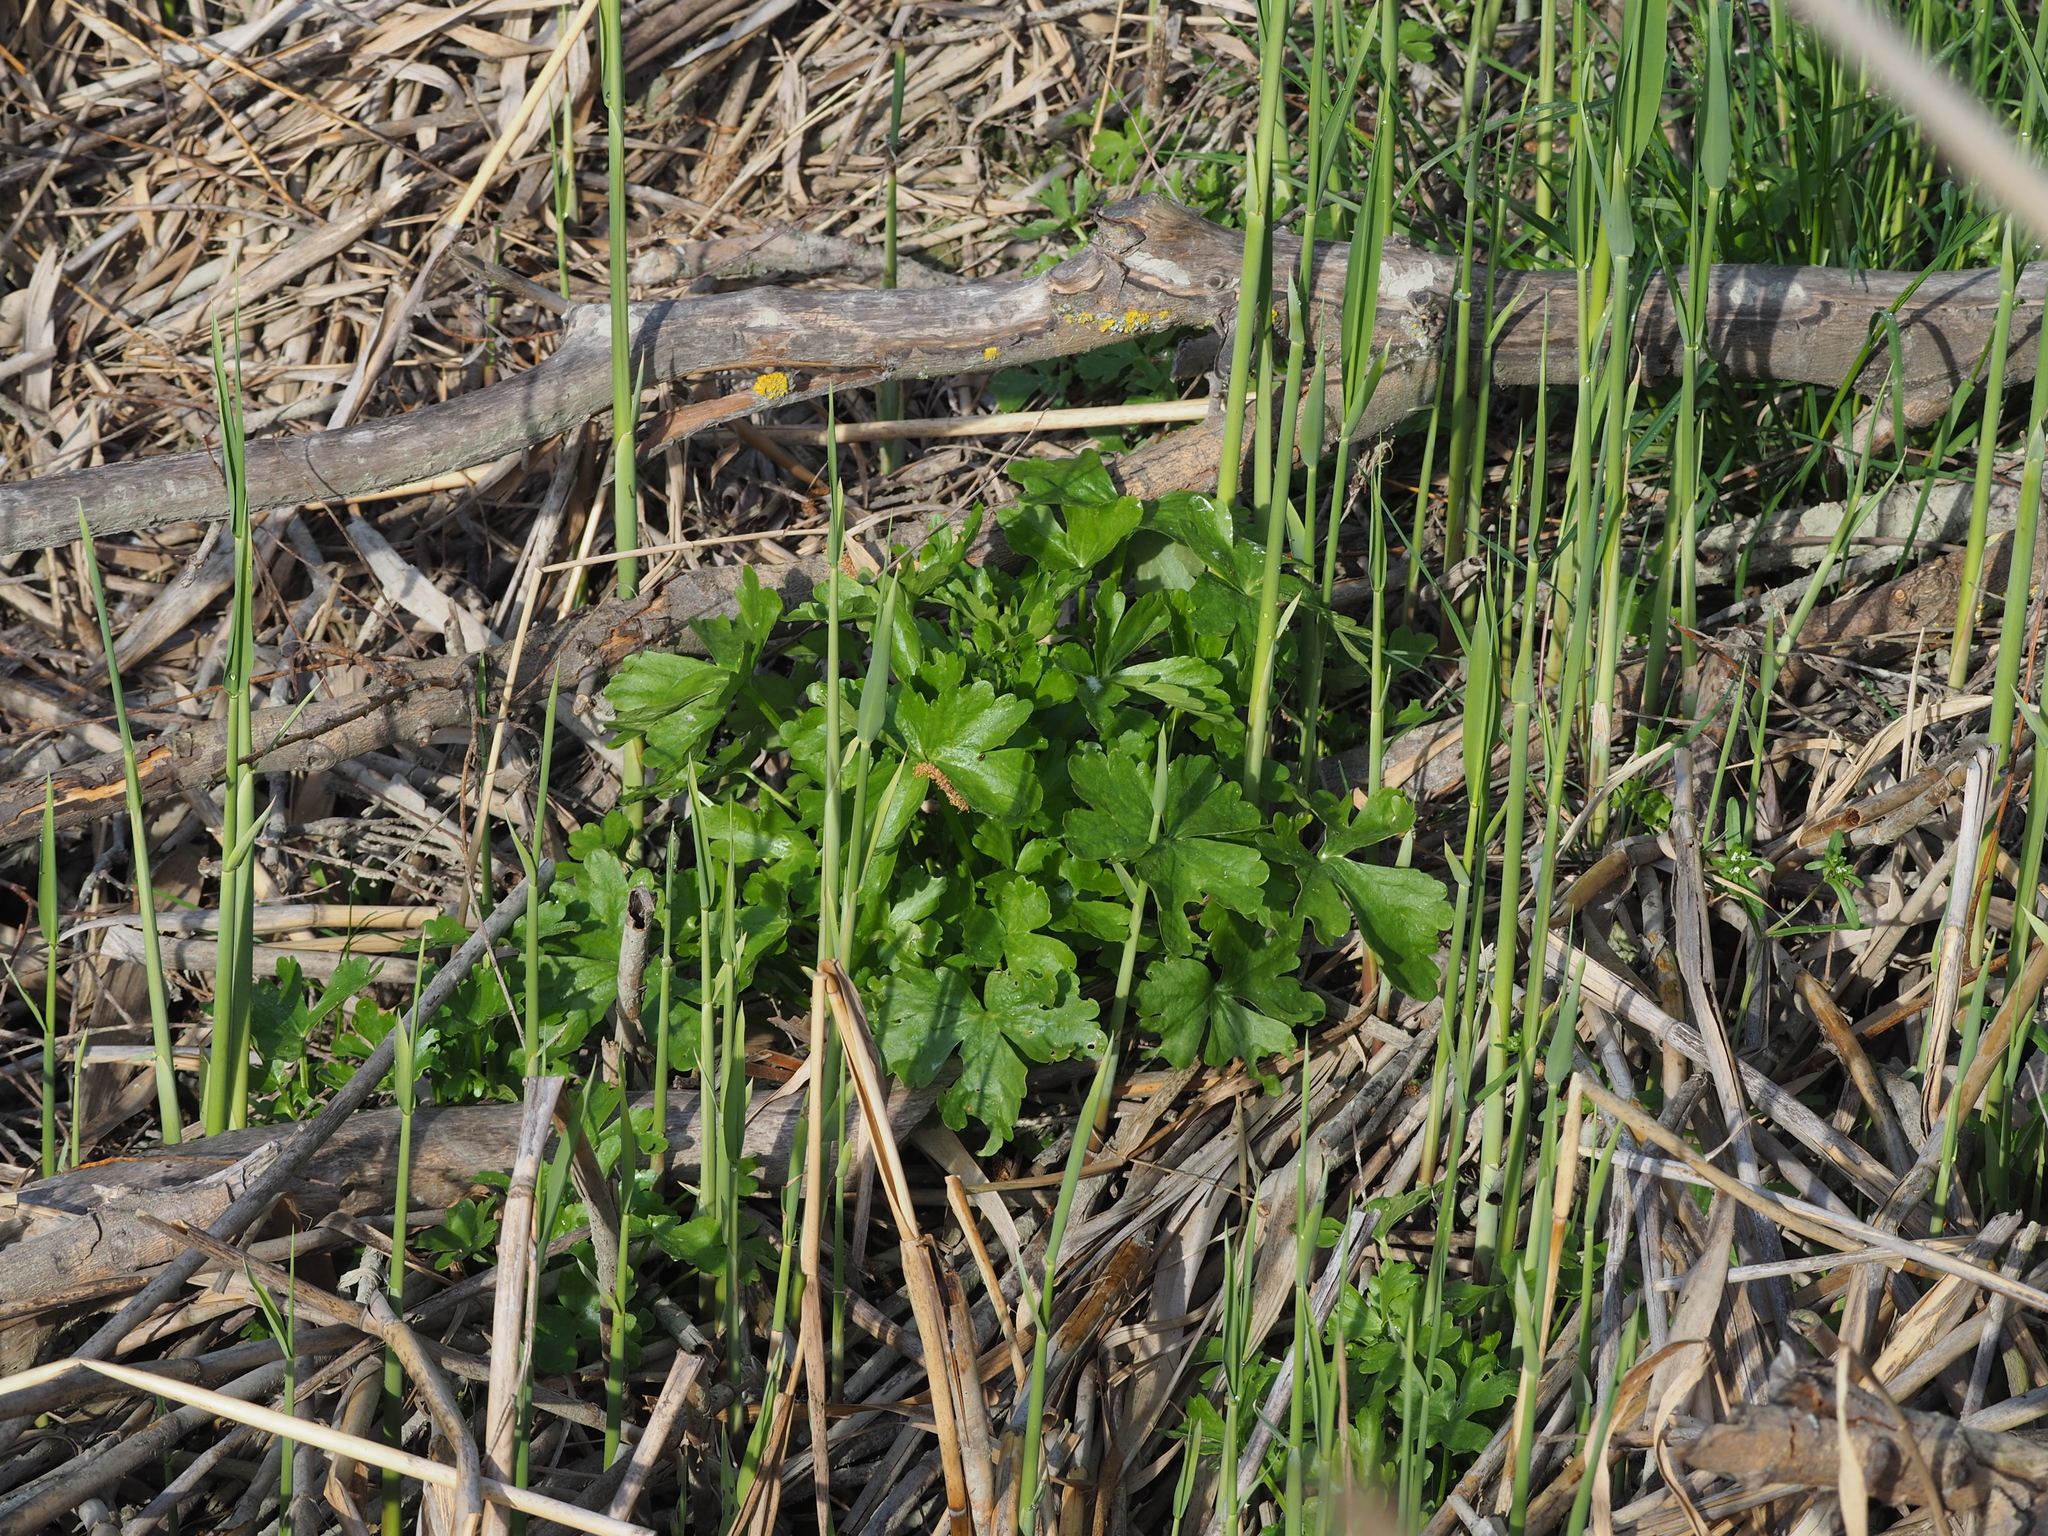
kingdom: Plantae
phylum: Tracheophyta
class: Magnoliopsida
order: Ranunculales
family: Ranunculaceae
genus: Ranunculus
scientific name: Ranunculus sceleratus
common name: Celery-leaved buttercup
